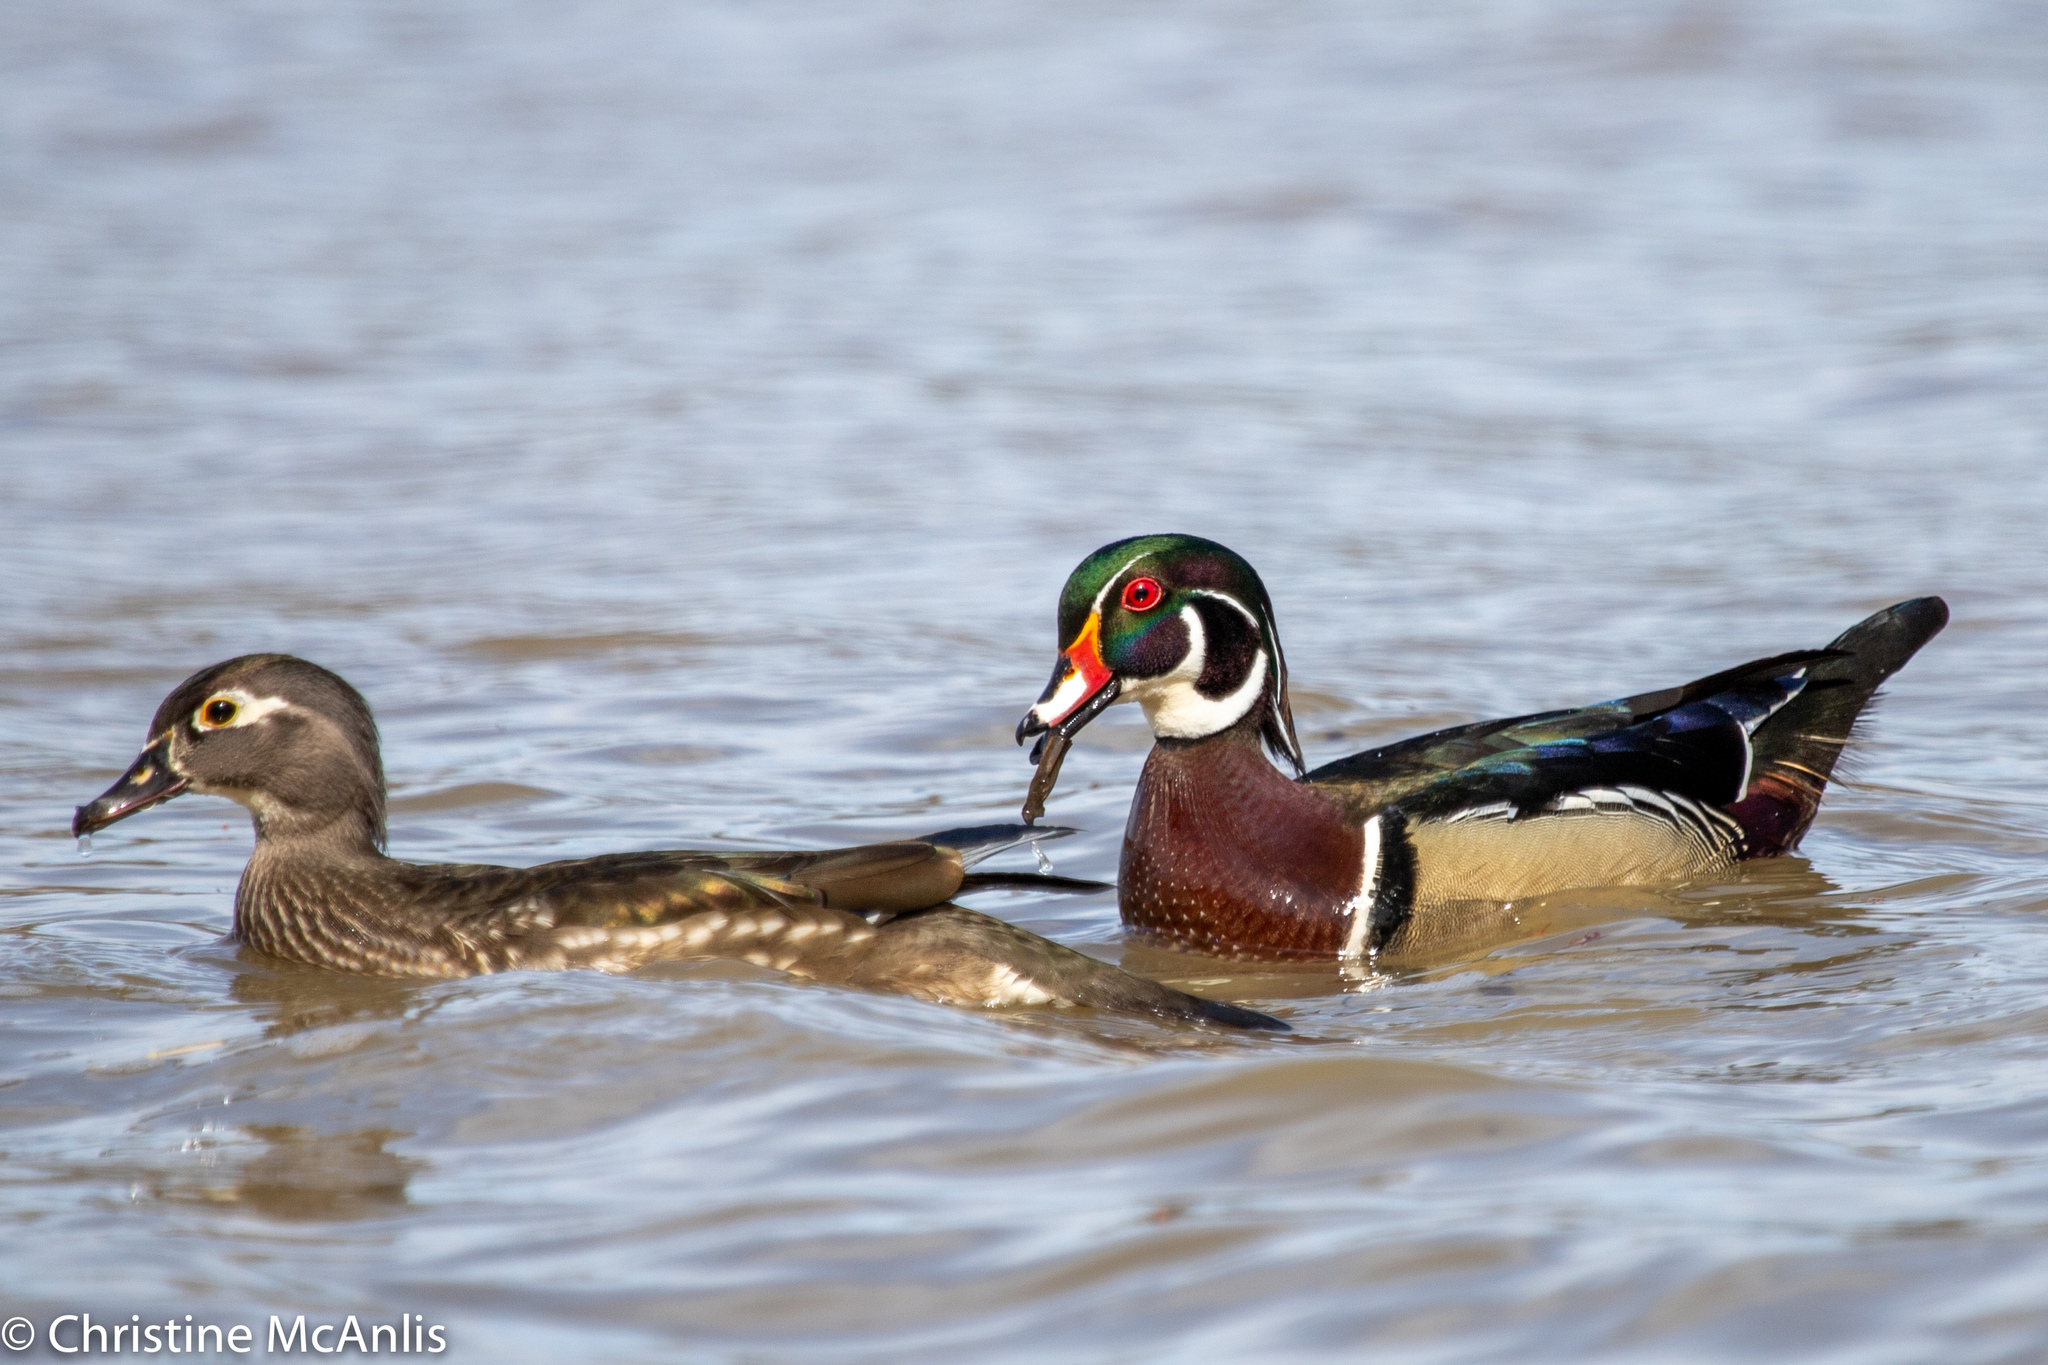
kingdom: Animalia
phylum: Chordata
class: Aves
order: Anseriformes
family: Anatidae
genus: Aix
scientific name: Aix sponsa
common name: Wood duck
